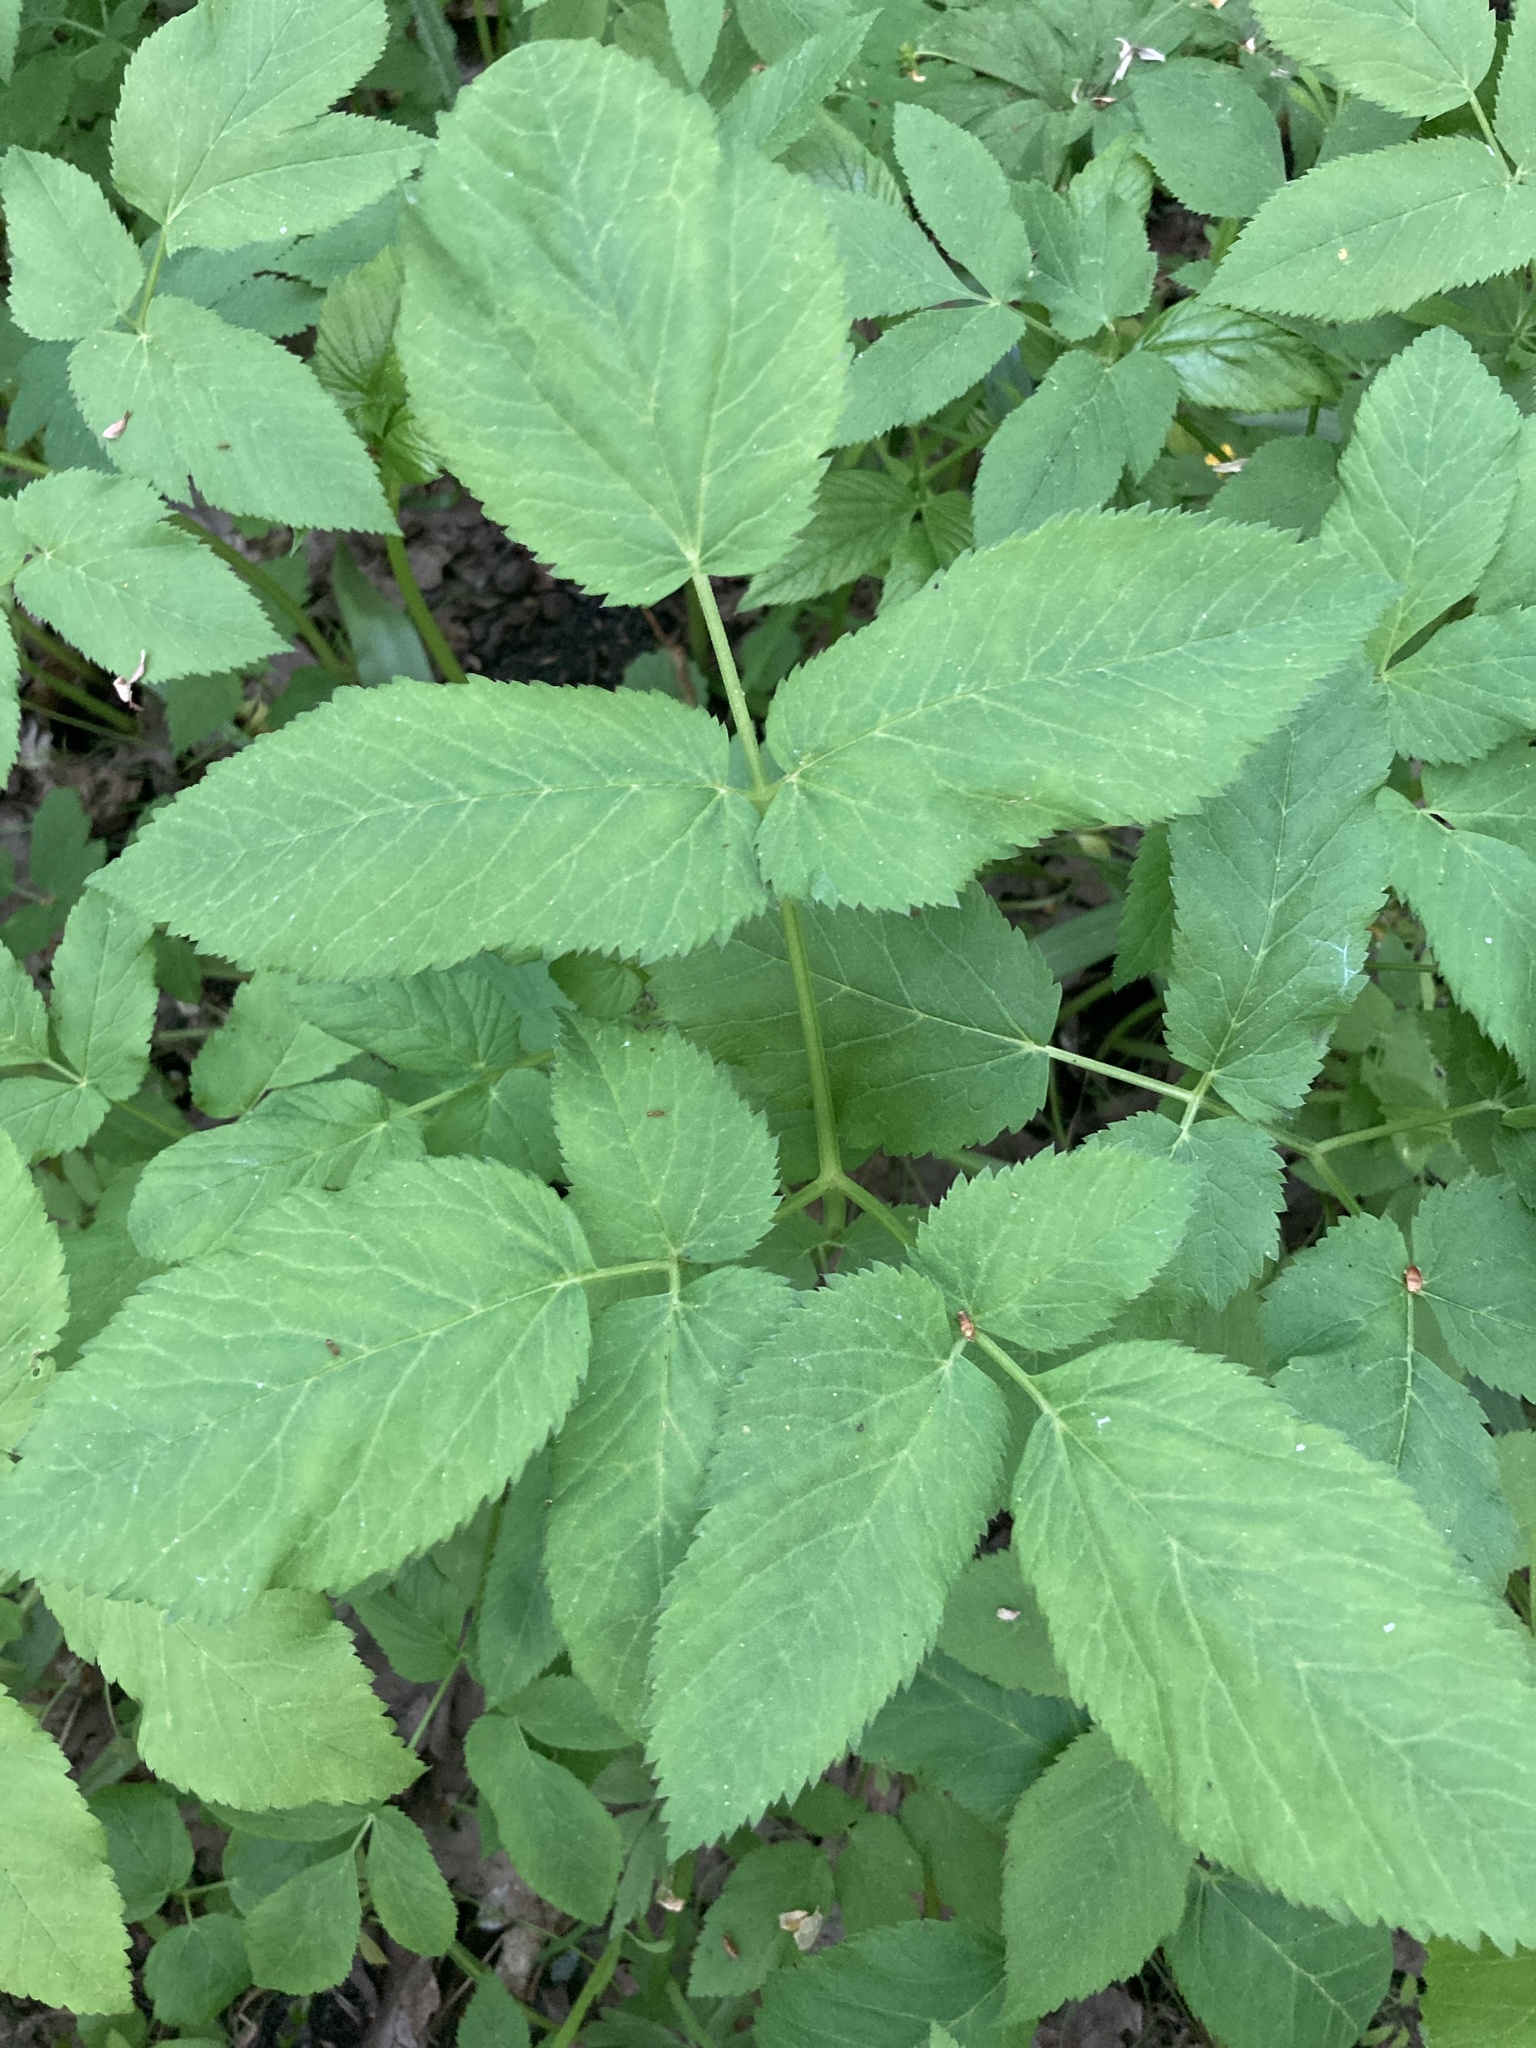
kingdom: Plantae
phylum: Tracheophyta
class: Magnoliopsida
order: Apiales
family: Apiaceae
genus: Aegopodium
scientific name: Aegopodium podagraria
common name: Ground-elder
